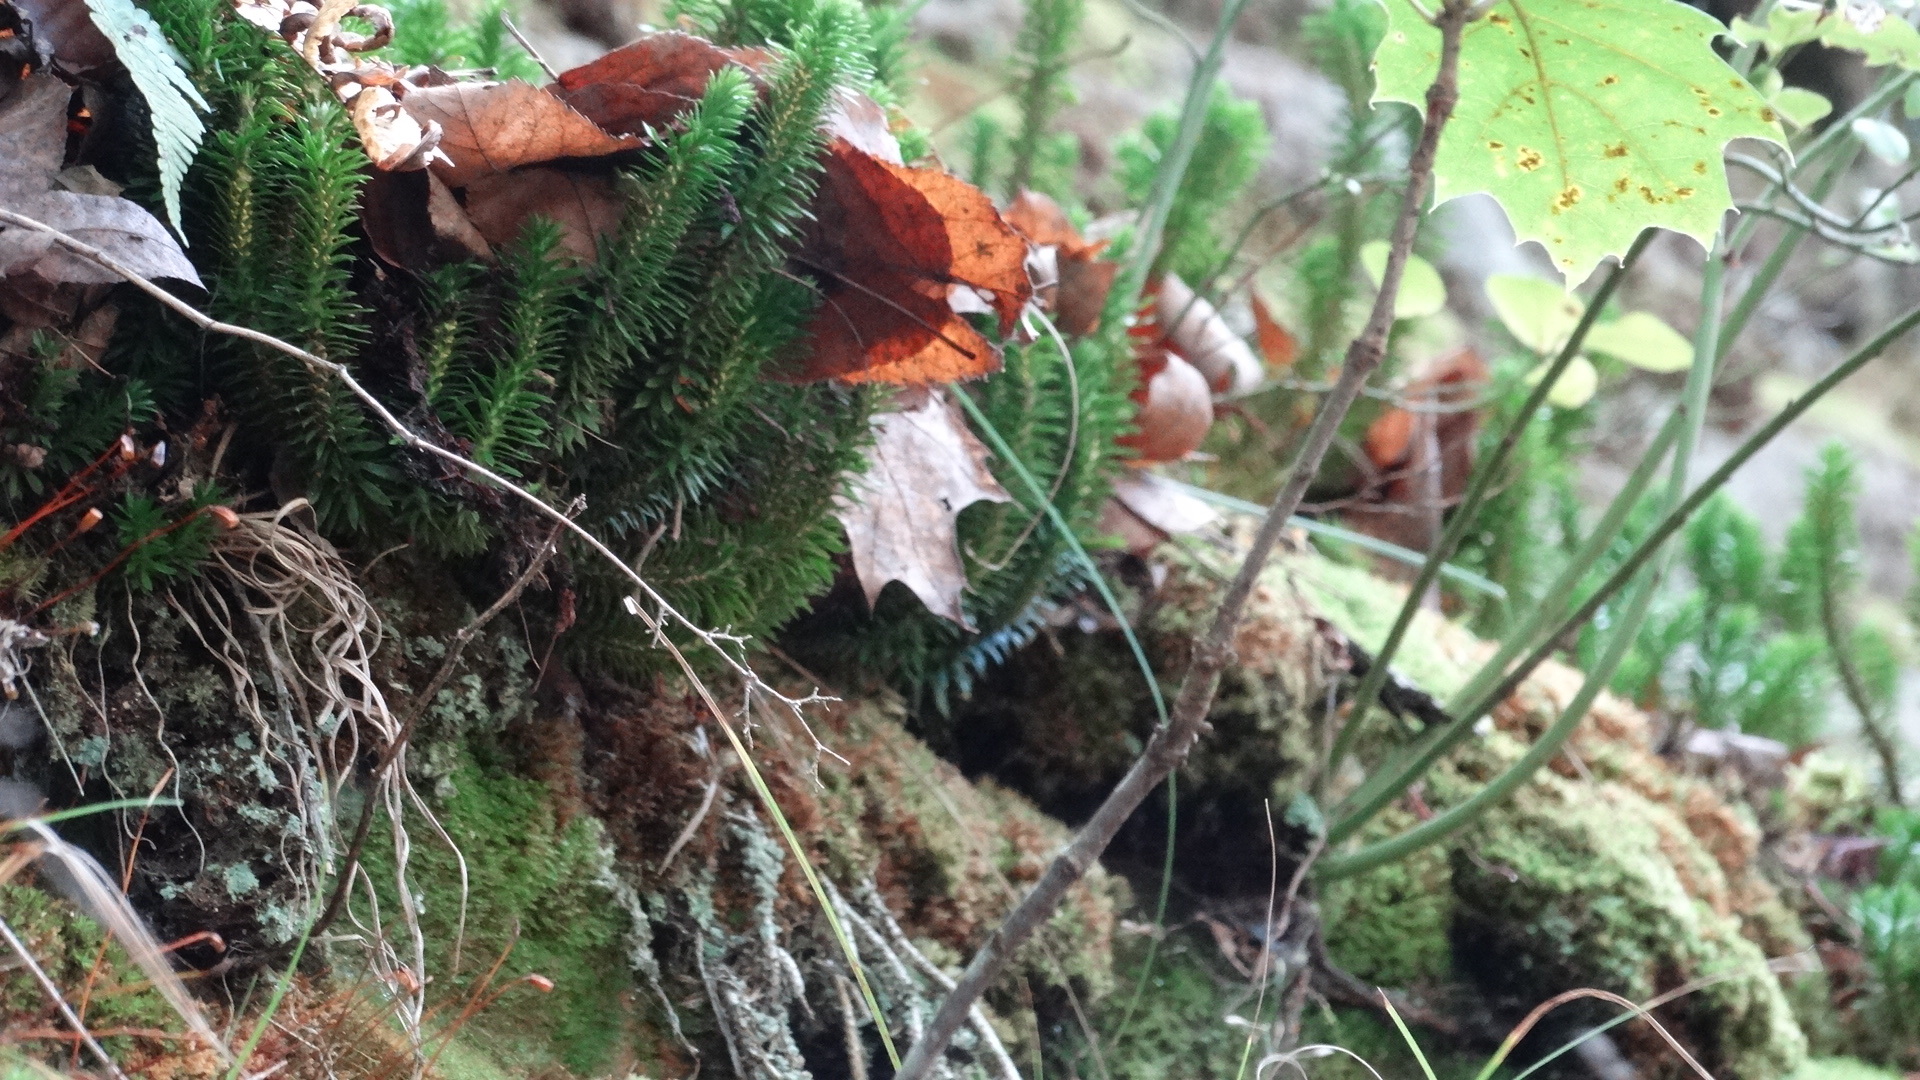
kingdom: Plantae
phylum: Tracheophyta
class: Lycopodiopsida
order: Lycopodiales
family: Lycopodiaceae
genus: Huperzia
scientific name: Huperzia lucidula
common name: Shining clubmoss
